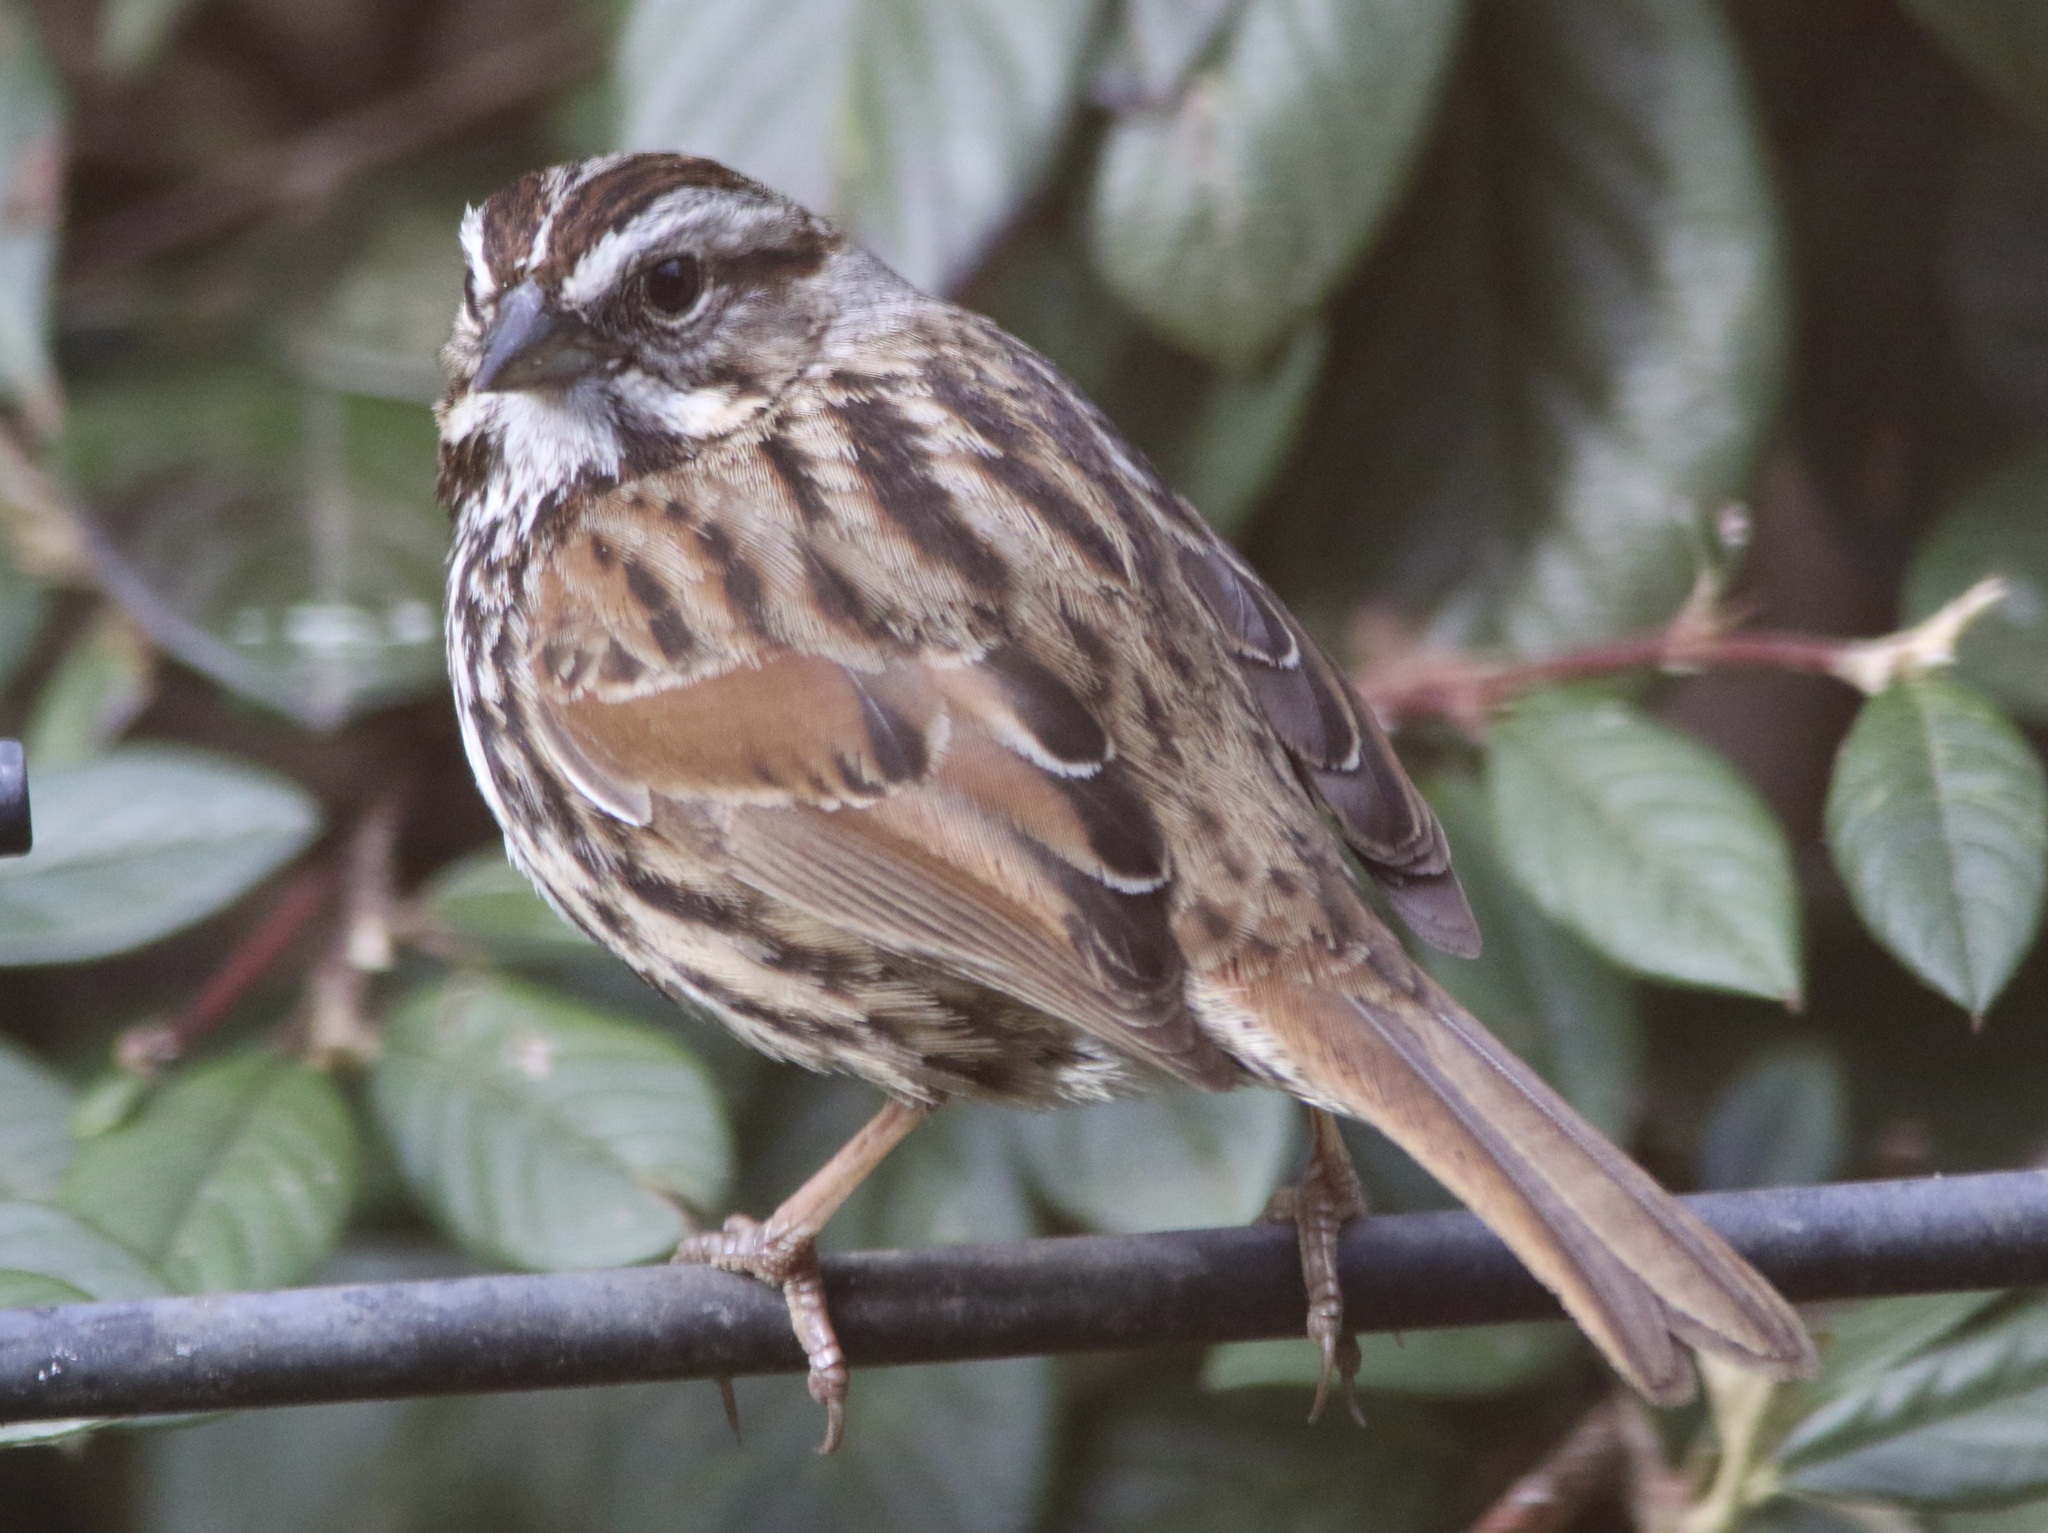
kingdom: Animalia
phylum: Chordata
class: Aves
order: Passeriformes
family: Passerellidae
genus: Melospiza
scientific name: Melospiza melodia
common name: Song sparrow
